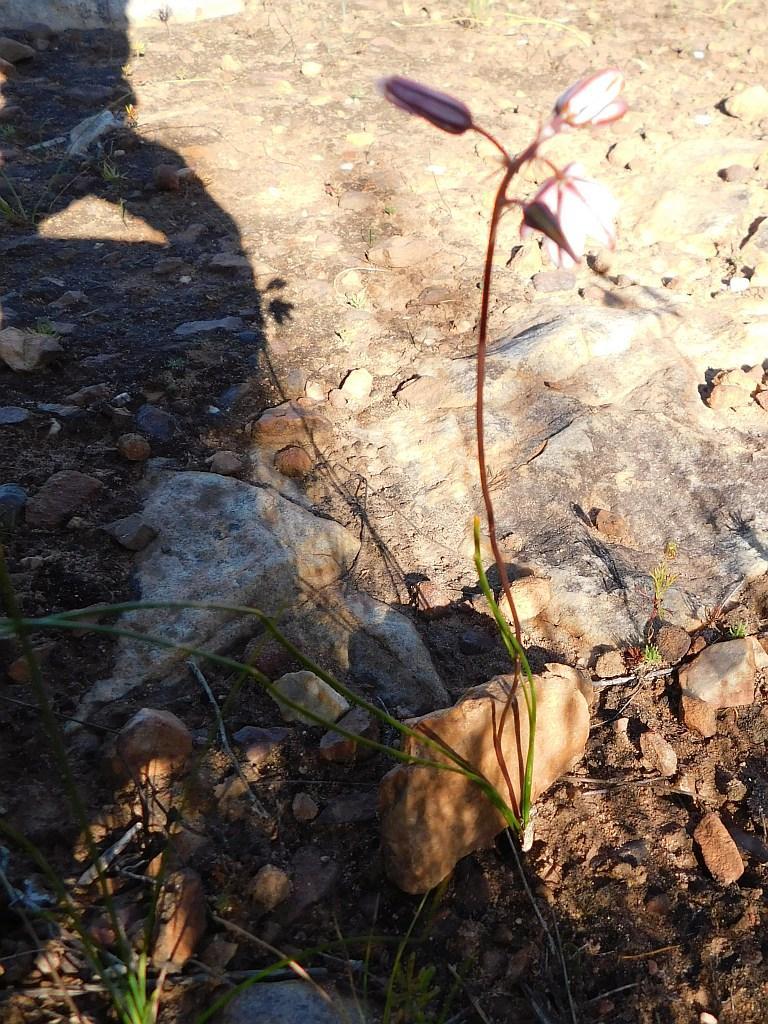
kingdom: Plantae
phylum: Tracheophyta
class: Liliopsida
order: Asparagales
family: Asparagaceae
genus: Drimia
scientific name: Drimia exuviata
